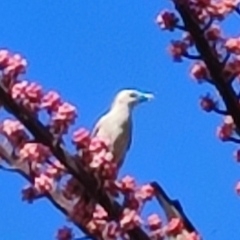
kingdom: Animalia
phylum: Chordata
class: Aves
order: Passeriformes
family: Sturnidae
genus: Sturnia
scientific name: Sturnia malabarica
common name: Chestnut-tailed starling
